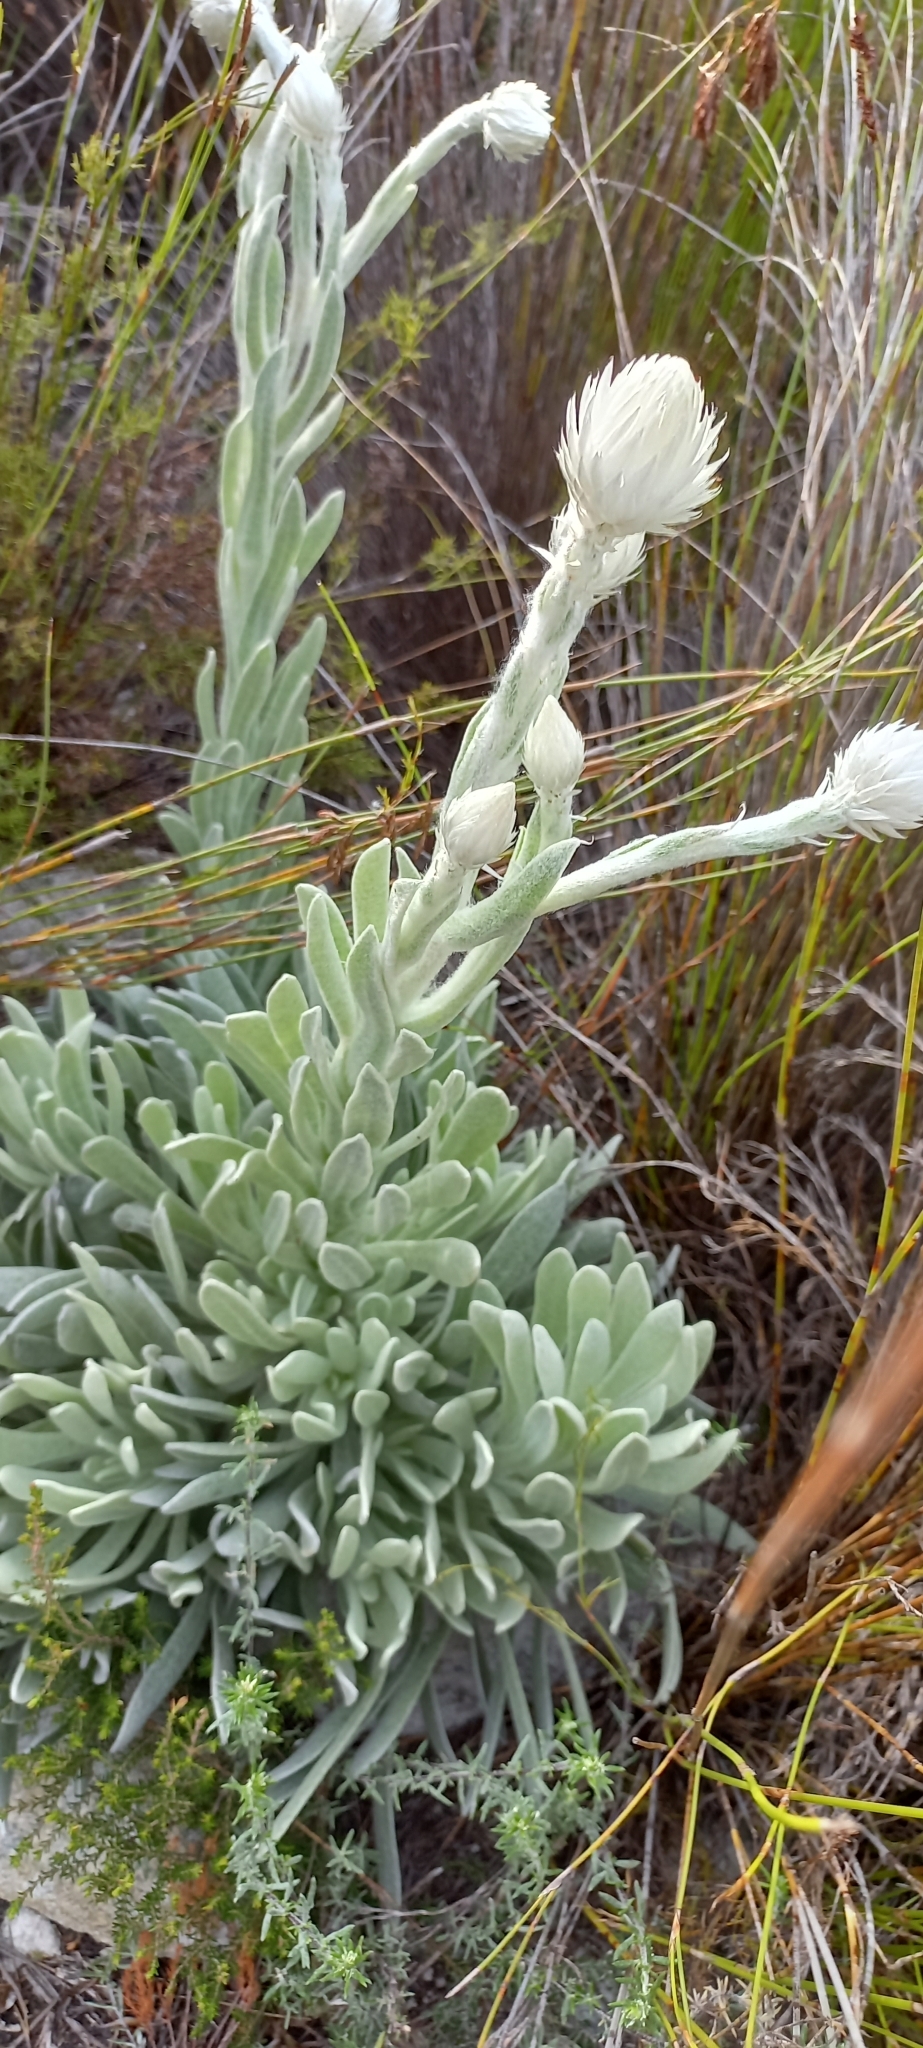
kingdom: Plantae
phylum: Tracheophyta
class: Magnoliopsida
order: Asterales
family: Asteraceae
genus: Syncarpha
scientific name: Syncarpha vestita
